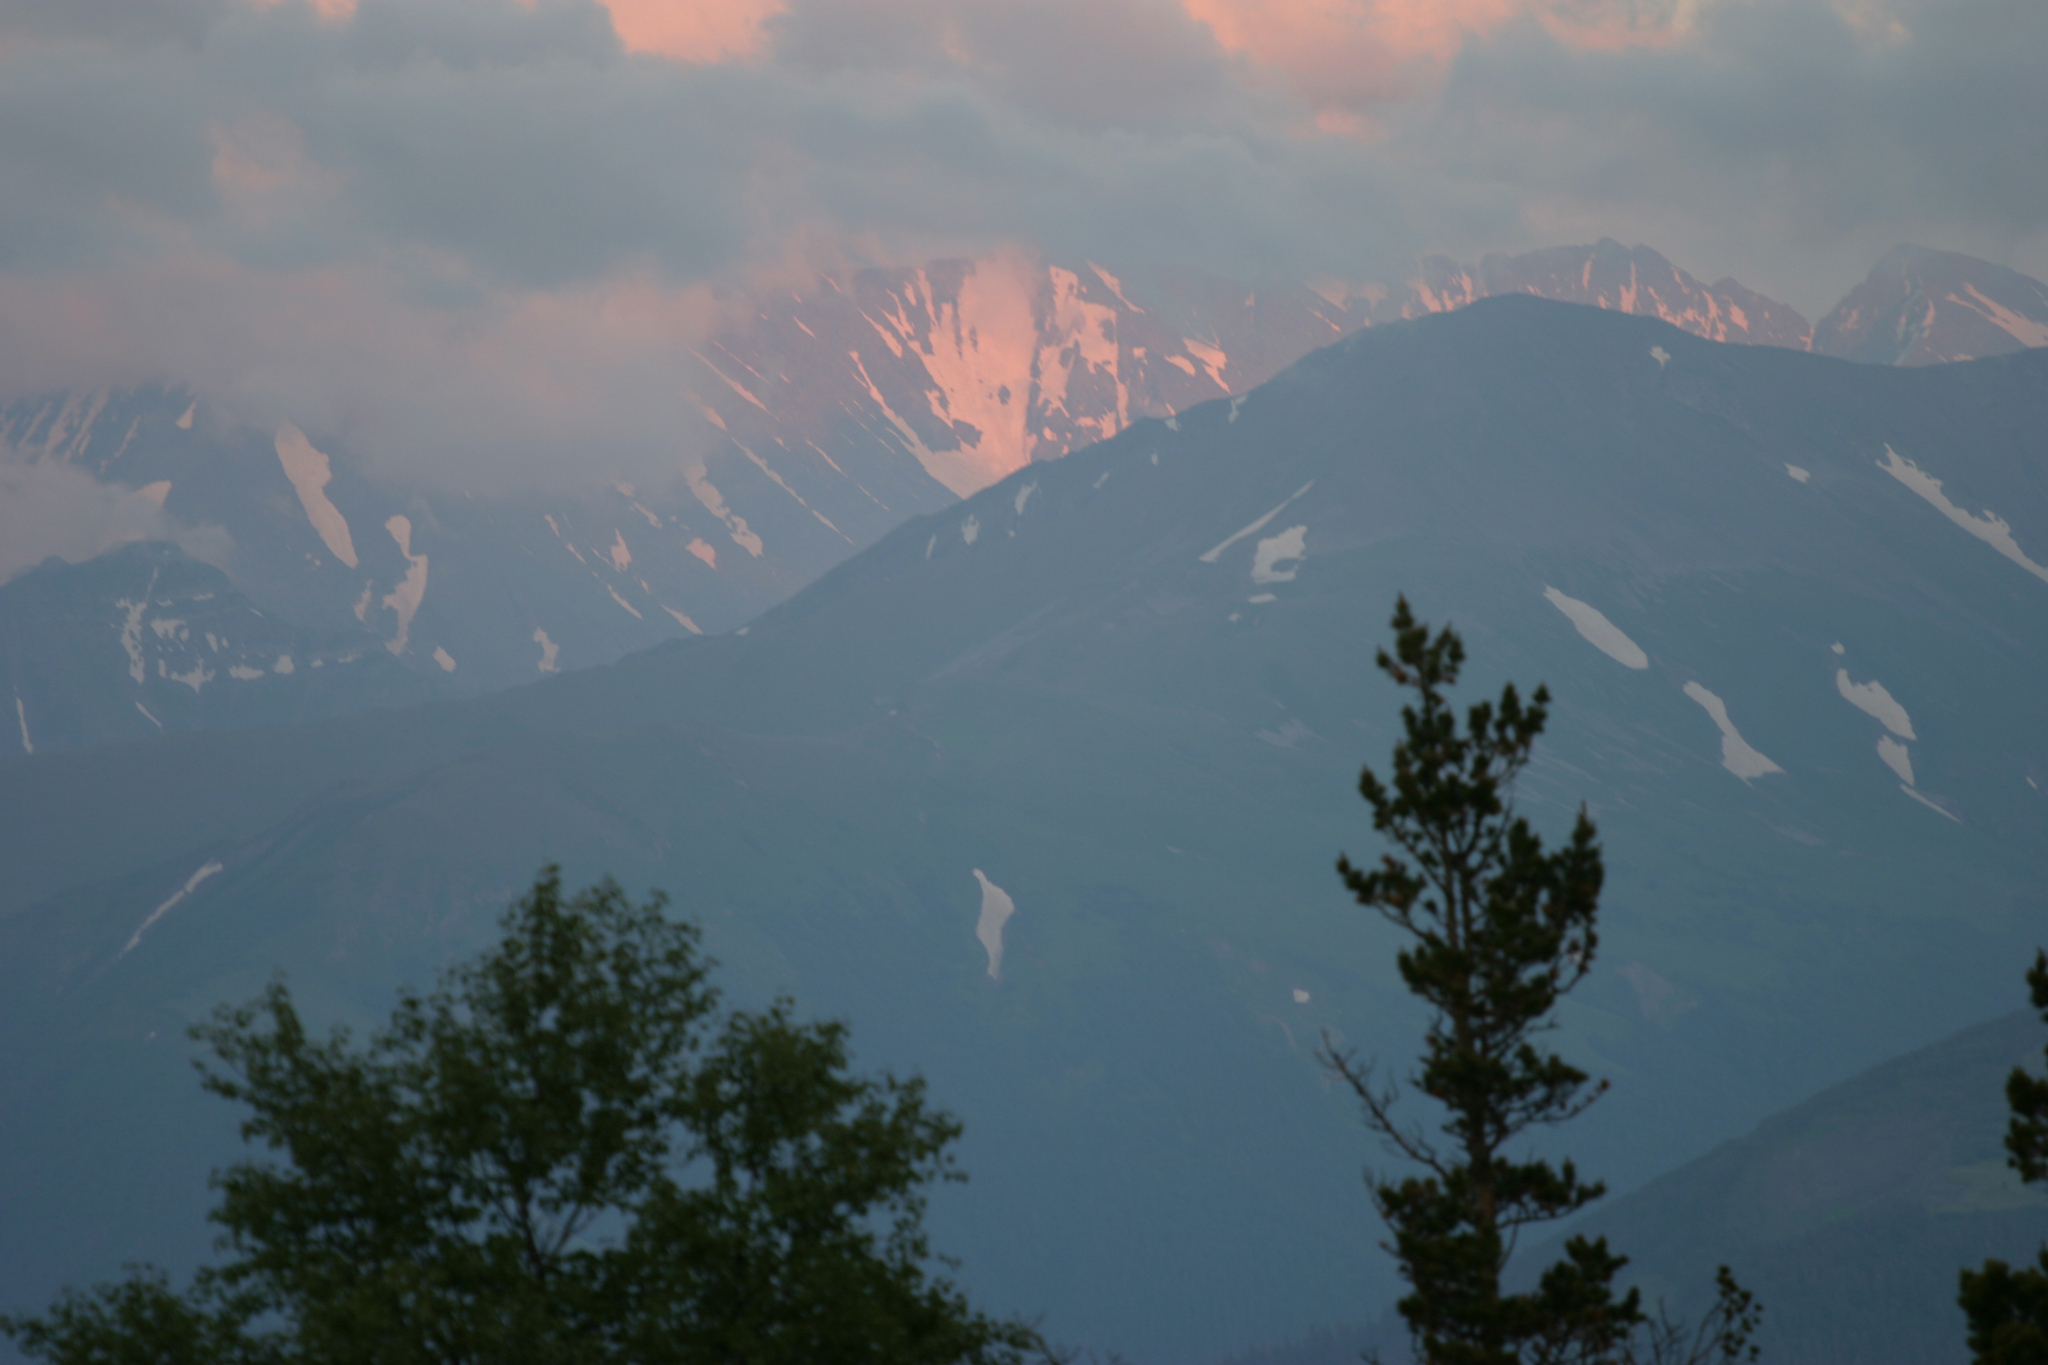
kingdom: Plantae
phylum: Tracheophyta
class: Pinopsida
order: Pinales
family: Pinaceae
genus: Pinus
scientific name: Pinus sylvestris
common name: Scots pine
